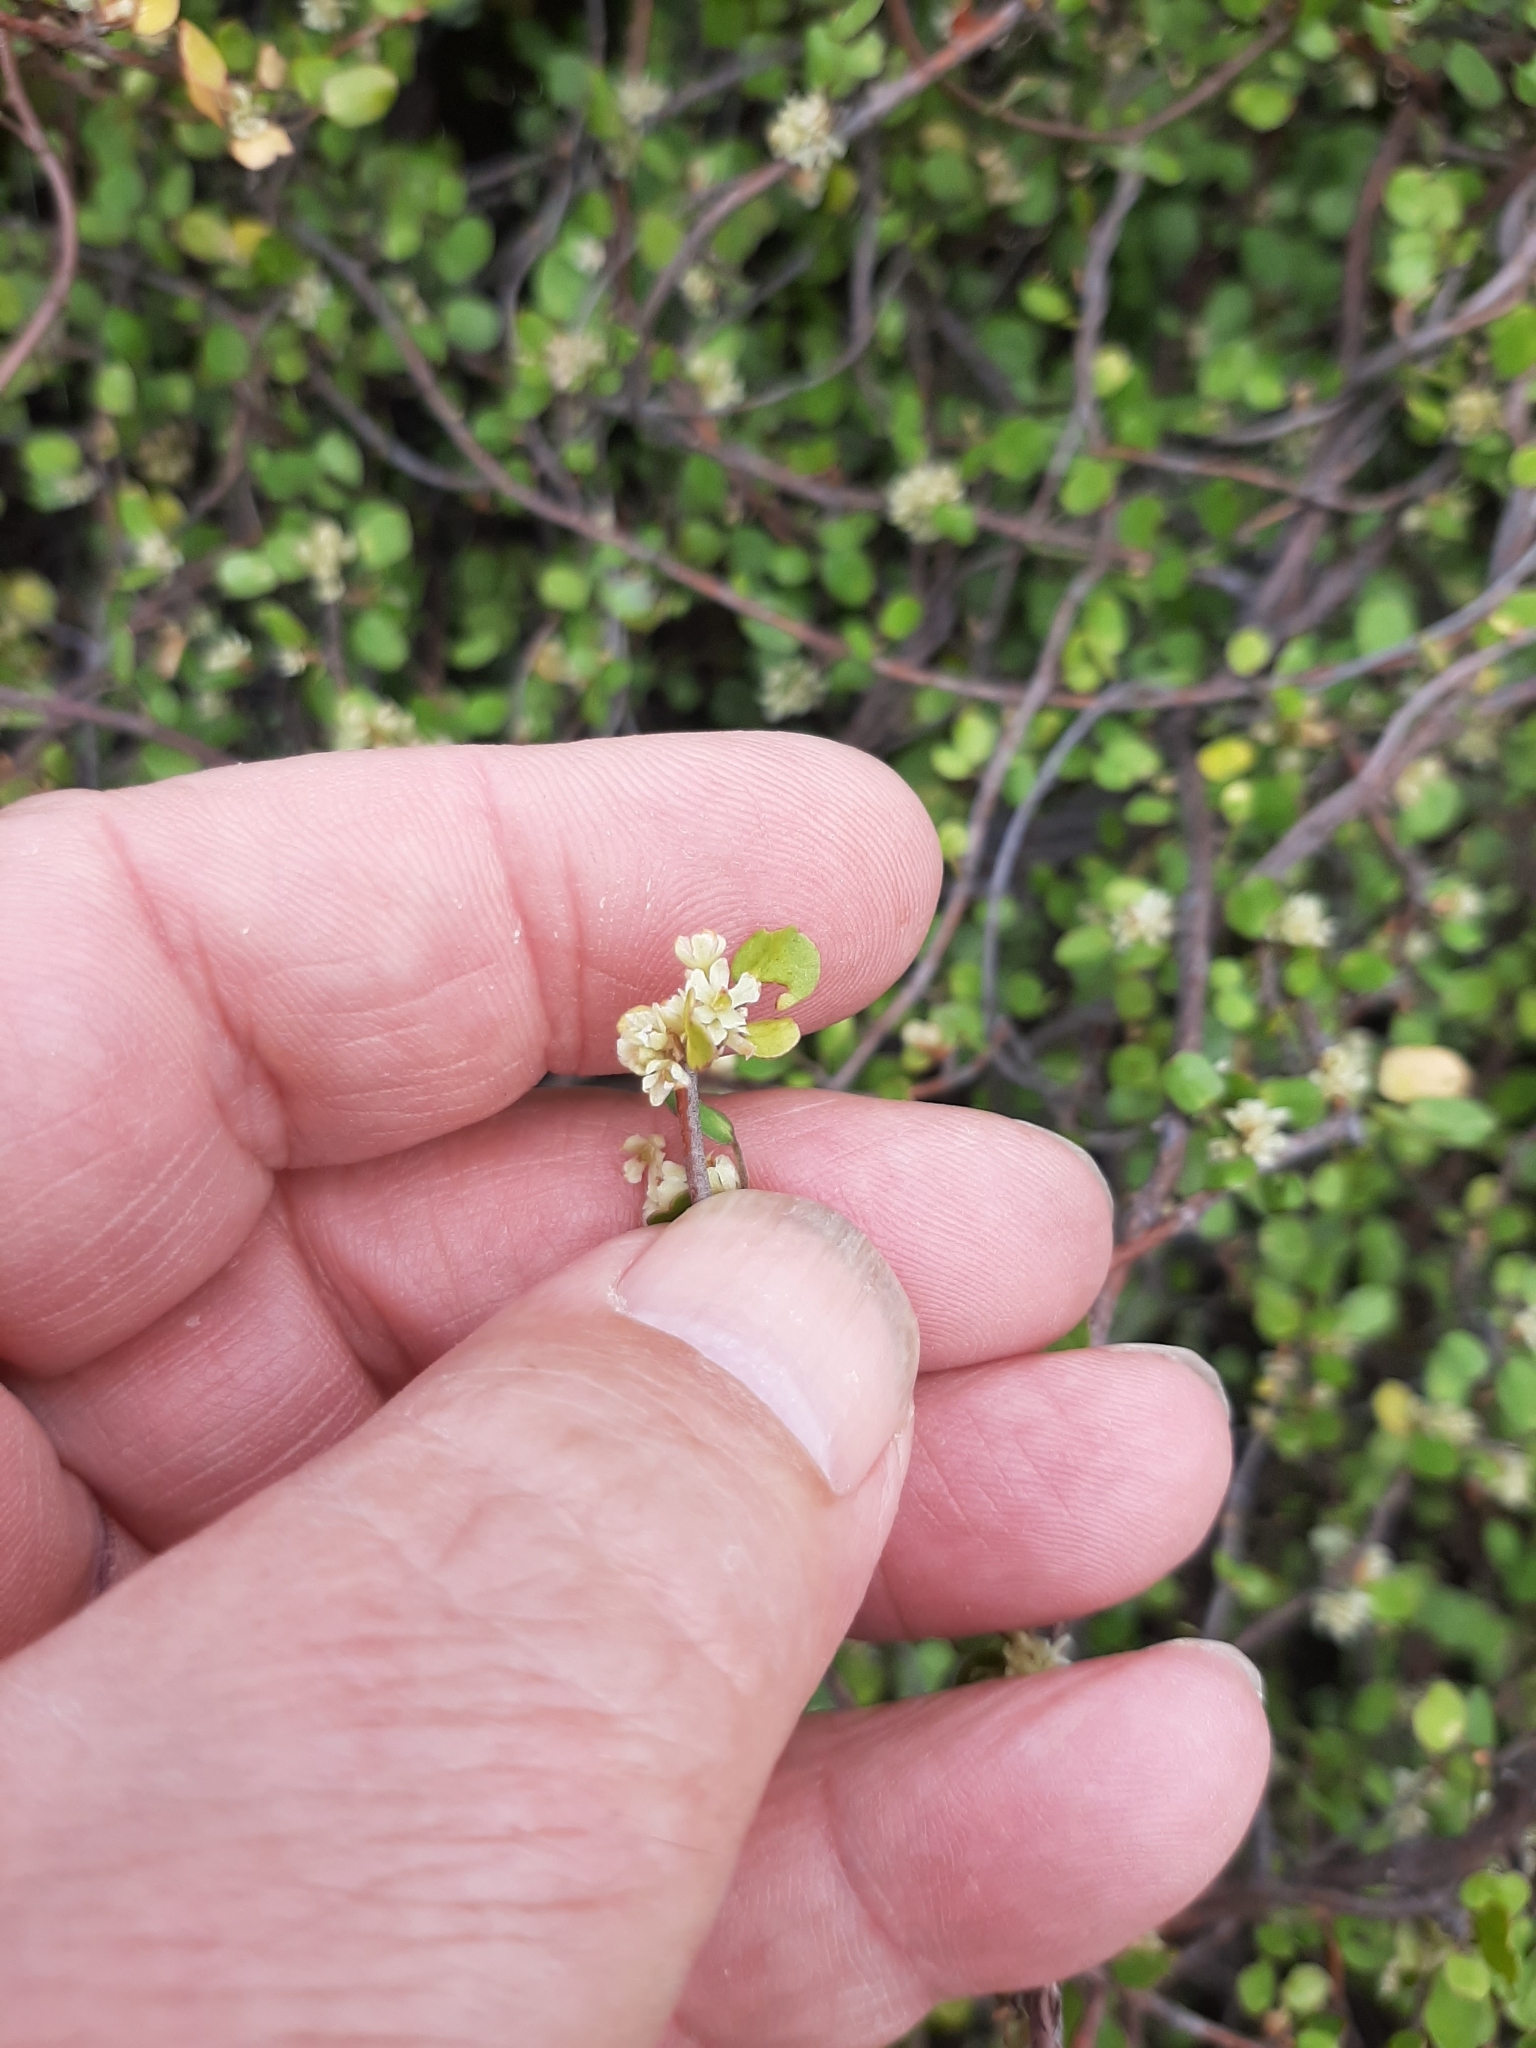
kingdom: Plantae
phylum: Tracheophyta
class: Magnoliopsida
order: Caryophyllales
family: Polygonaceae
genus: Muehlenbeckia
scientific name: Muehlenbeckia complexa
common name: Wireplant
